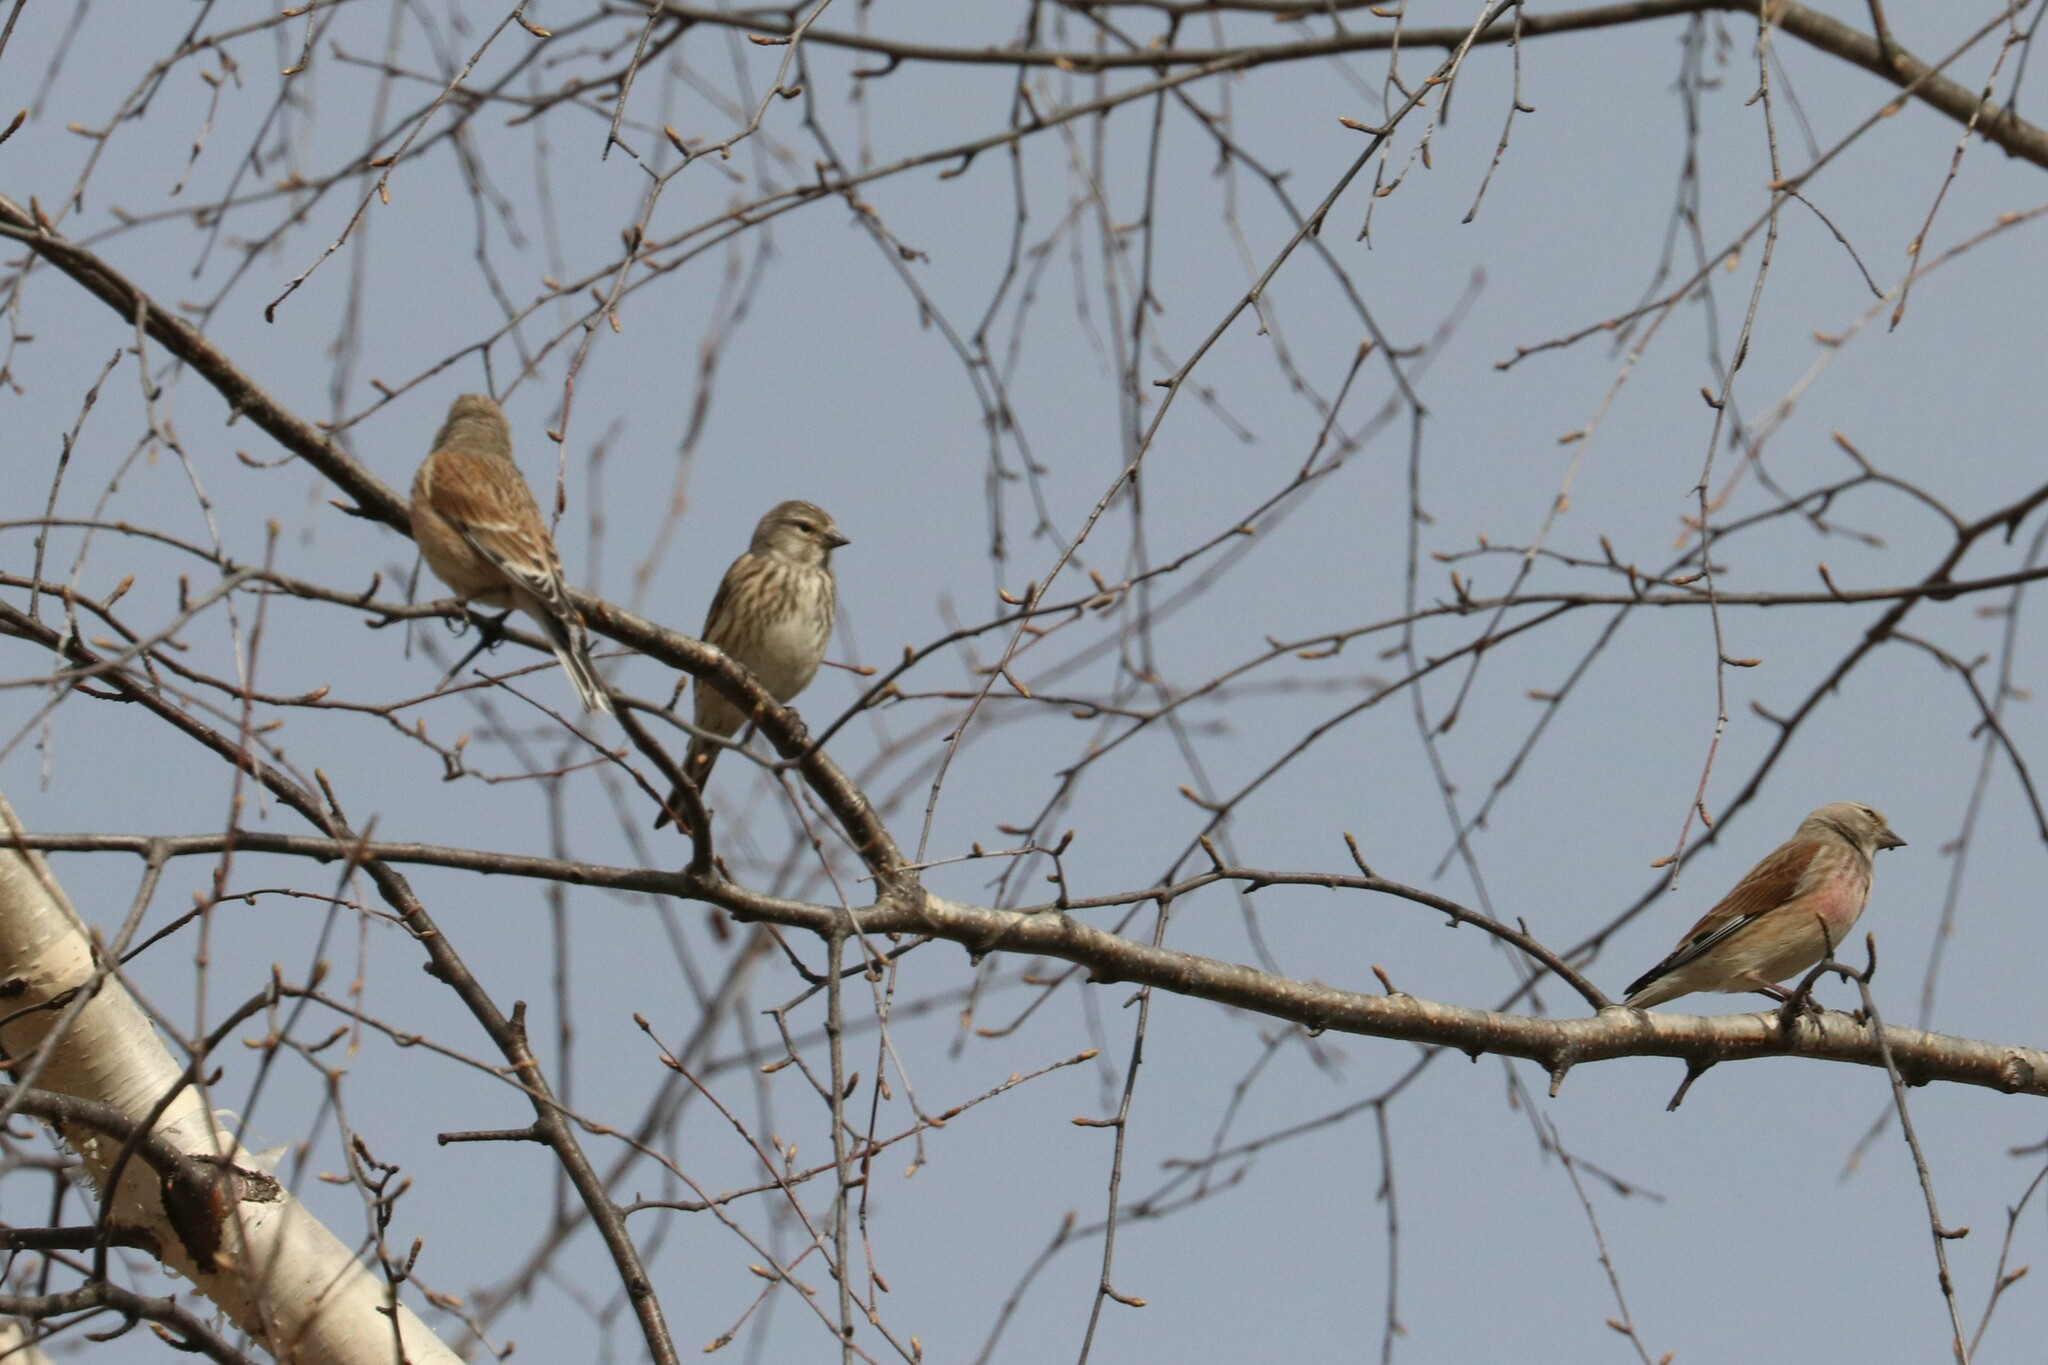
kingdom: Animalia
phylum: Chordata
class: Aves
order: Passeriformes
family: Fringillidae
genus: Linaria
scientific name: Linaria cannabina
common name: Common linnet
